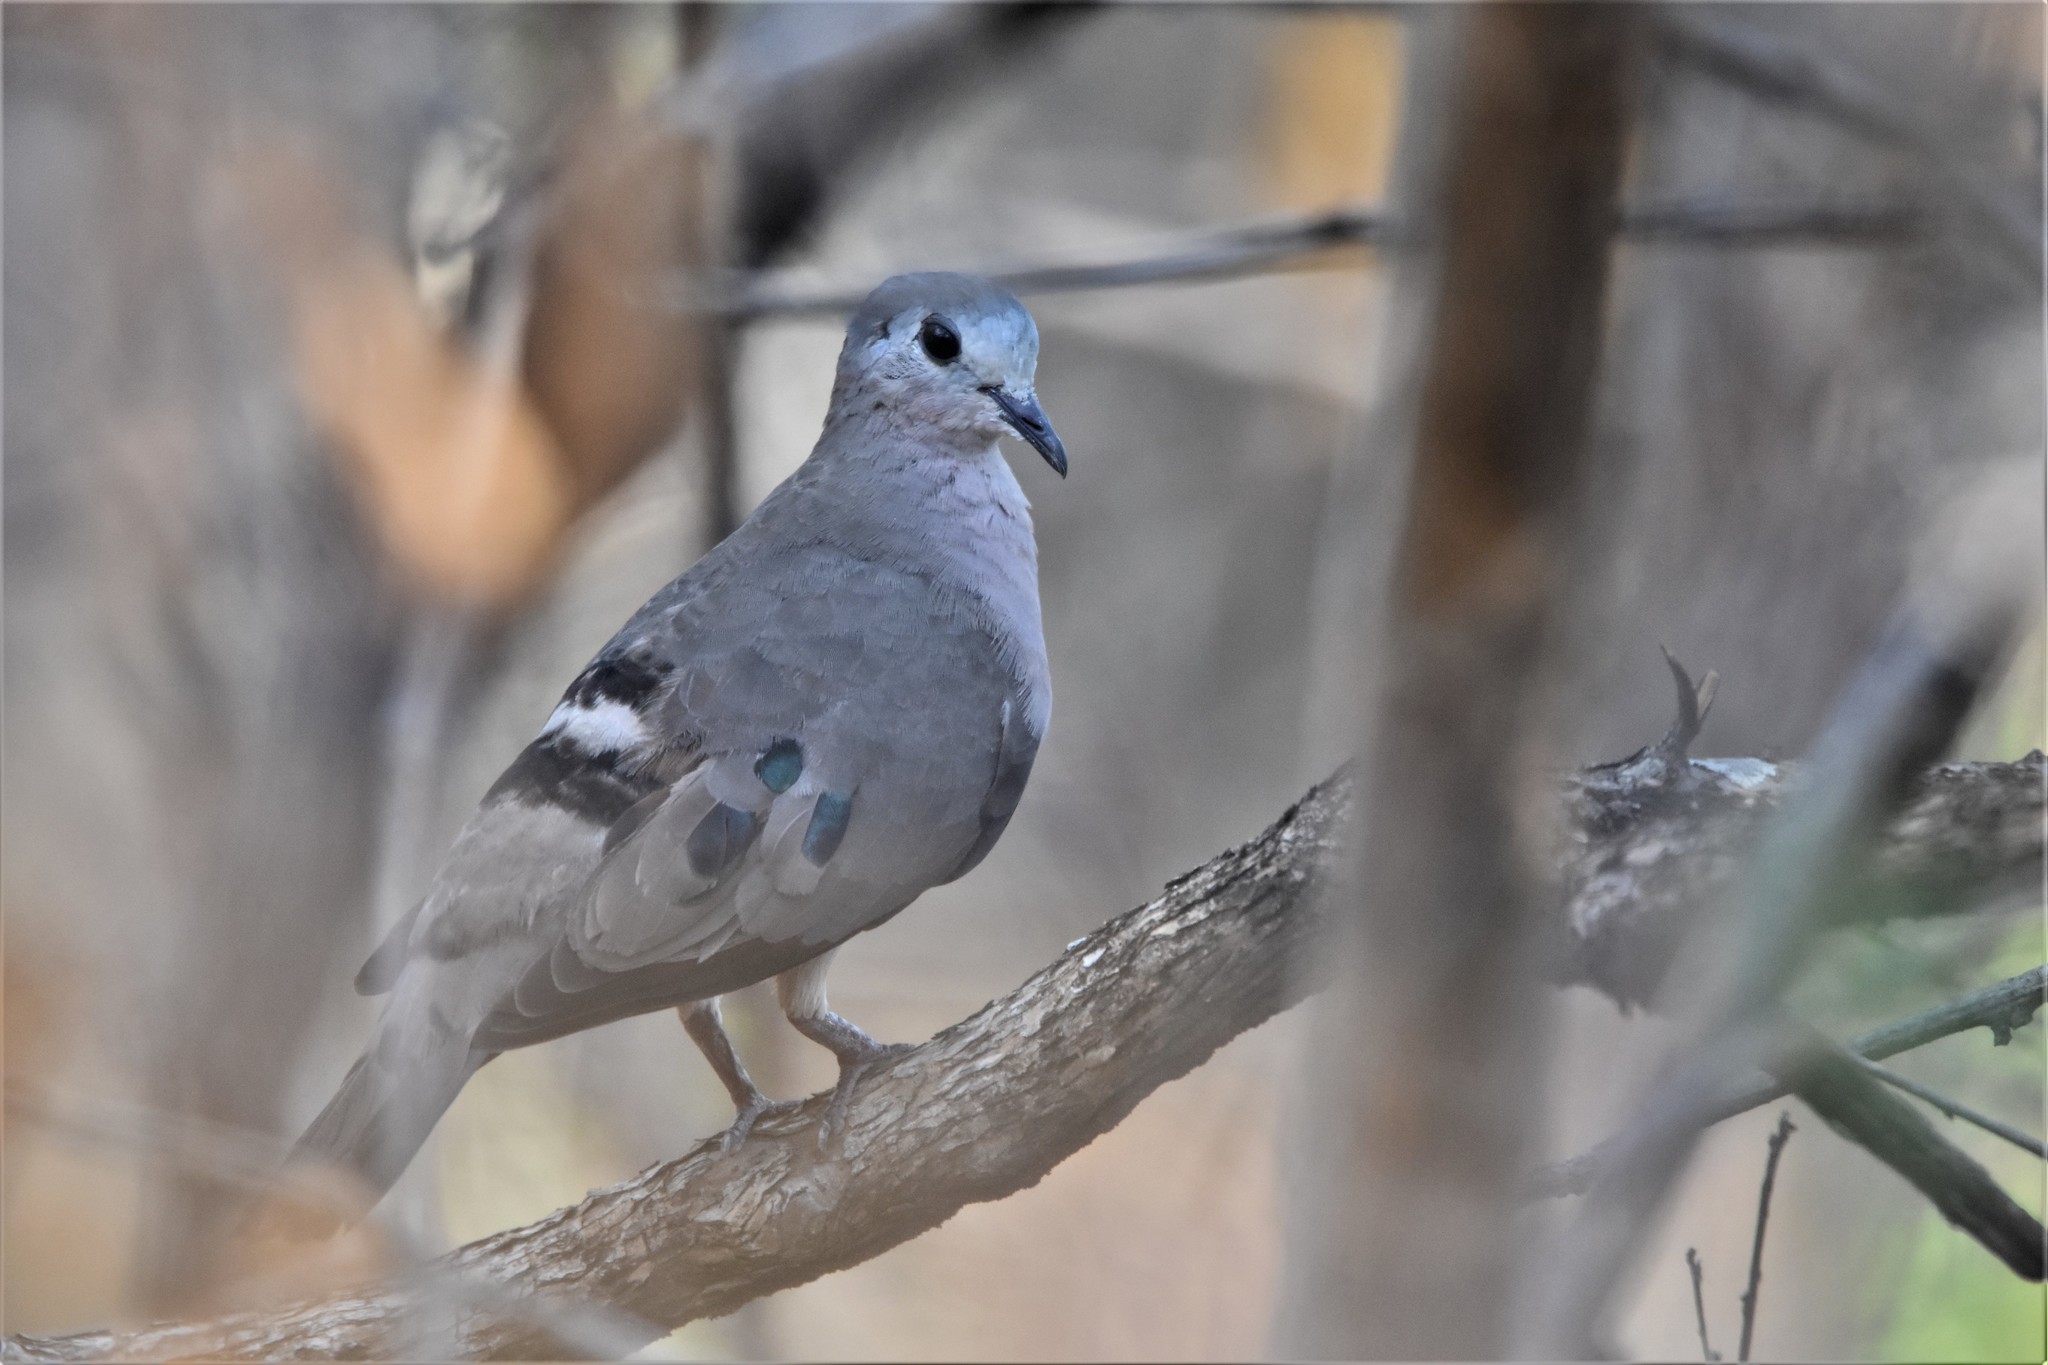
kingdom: Animalia
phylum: Chordata
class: Aves
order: Columbiformes
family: Columbidae
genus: Turtur
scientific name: Turtur chalcospilos
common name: Emerald-spotted wood dove
